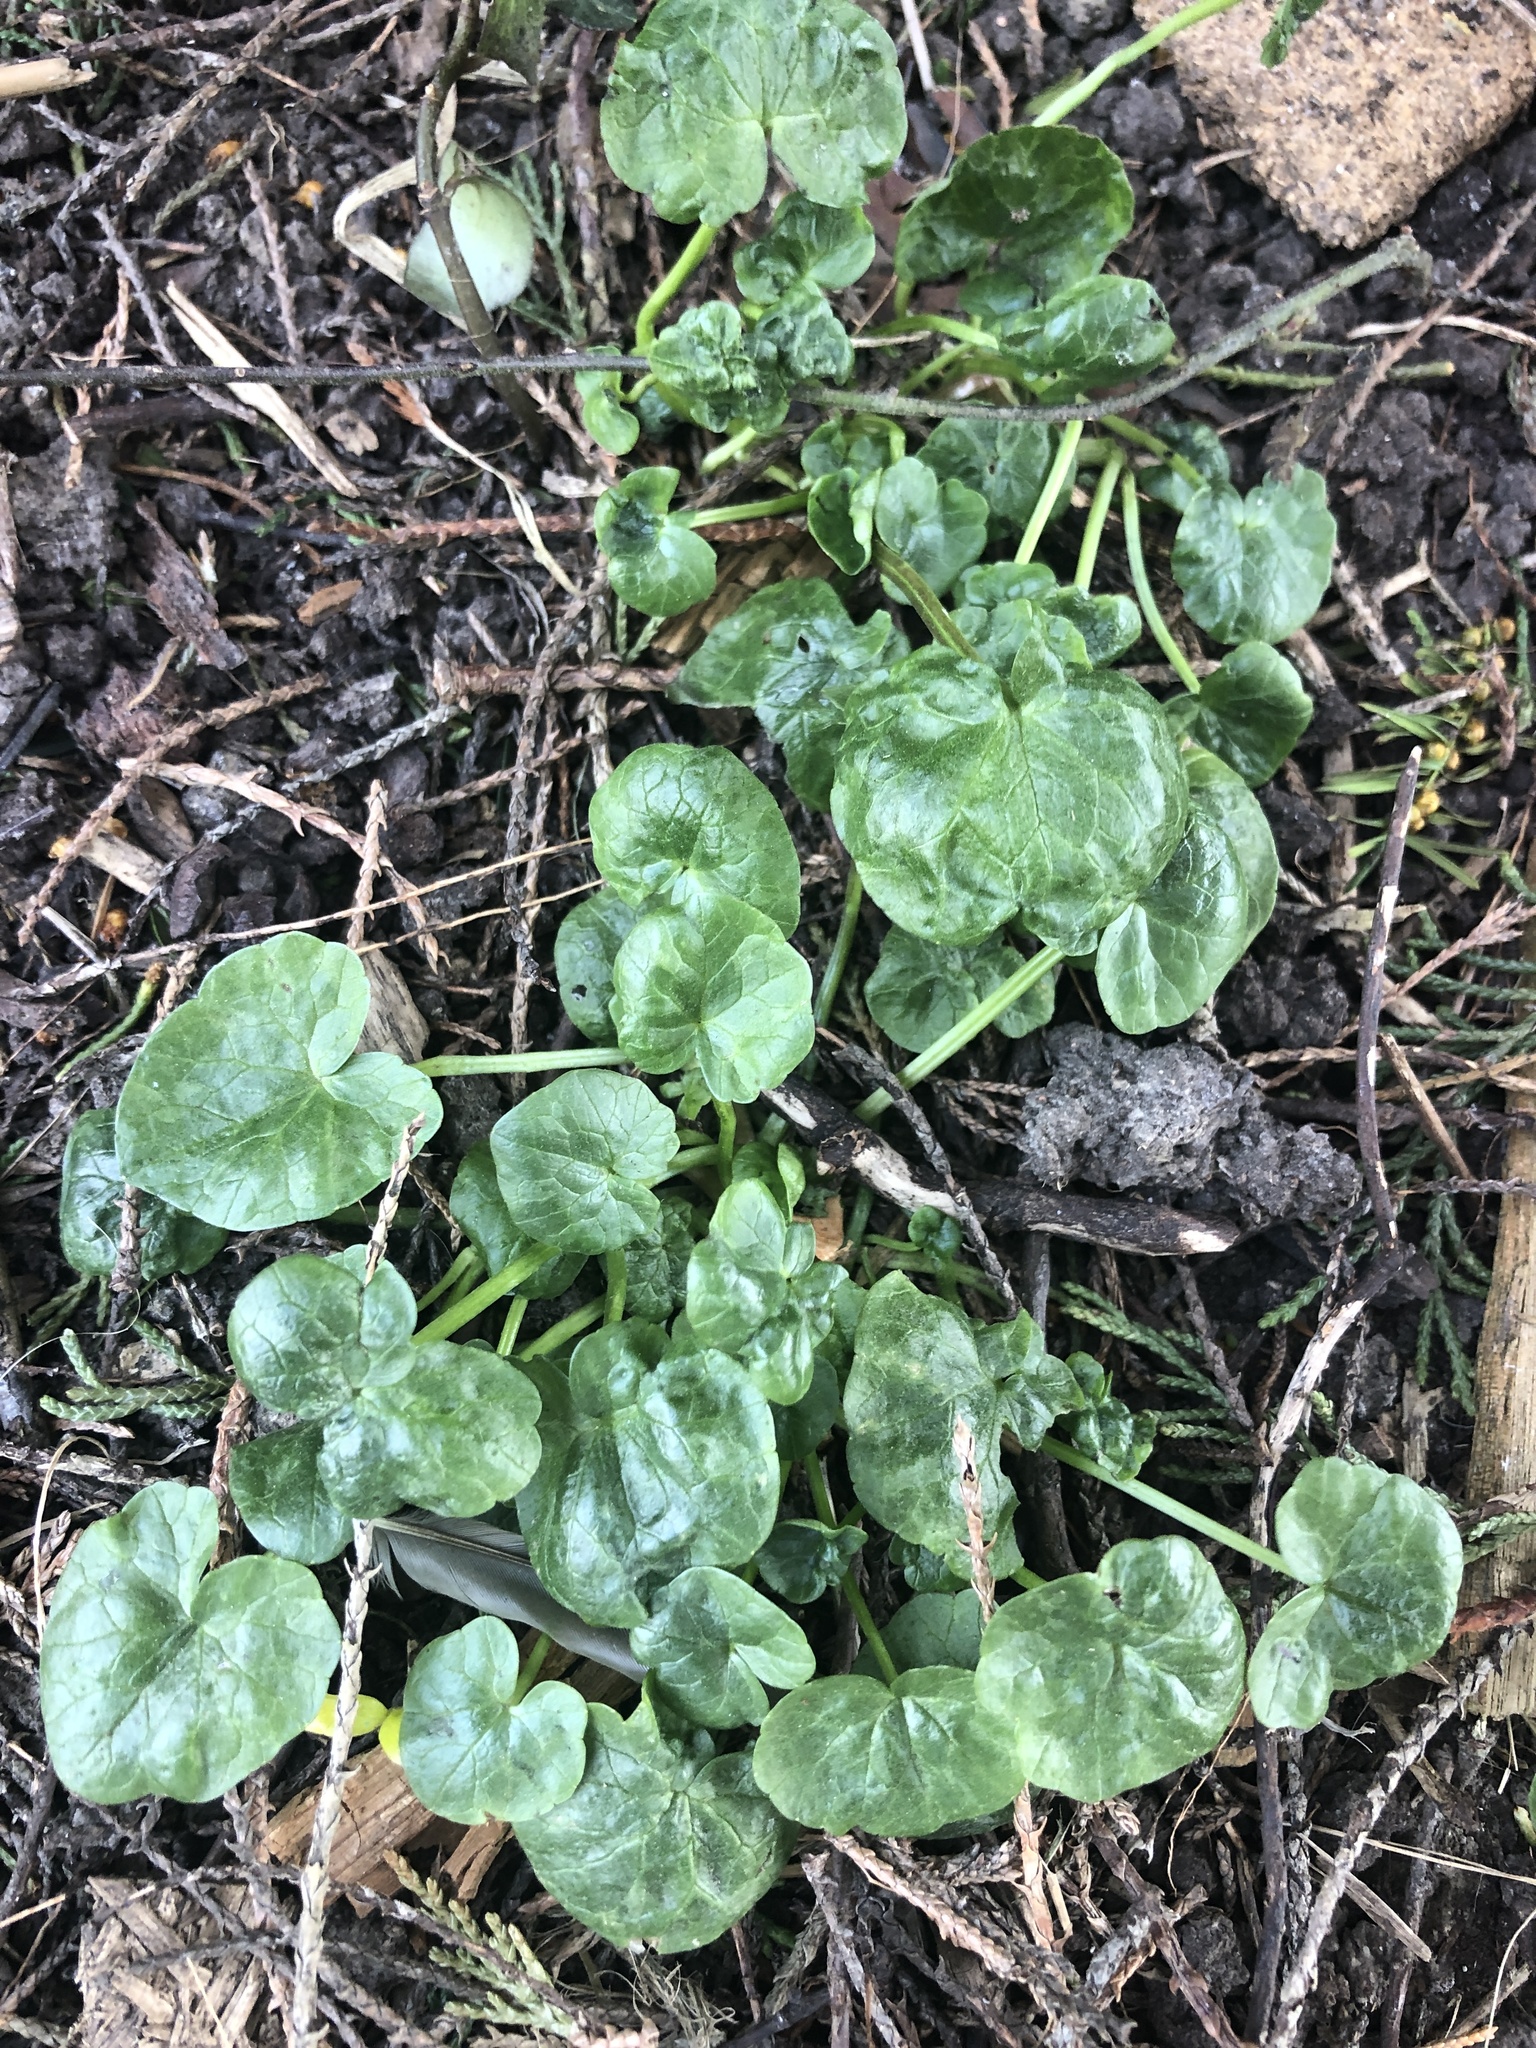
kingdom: Plantae
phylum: Tracheophyta
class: Magnoliopsida
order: Ranunculales
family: Ranunculaceae
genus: Ficaria
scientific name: Ficaria verna
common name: Lesser celandine
